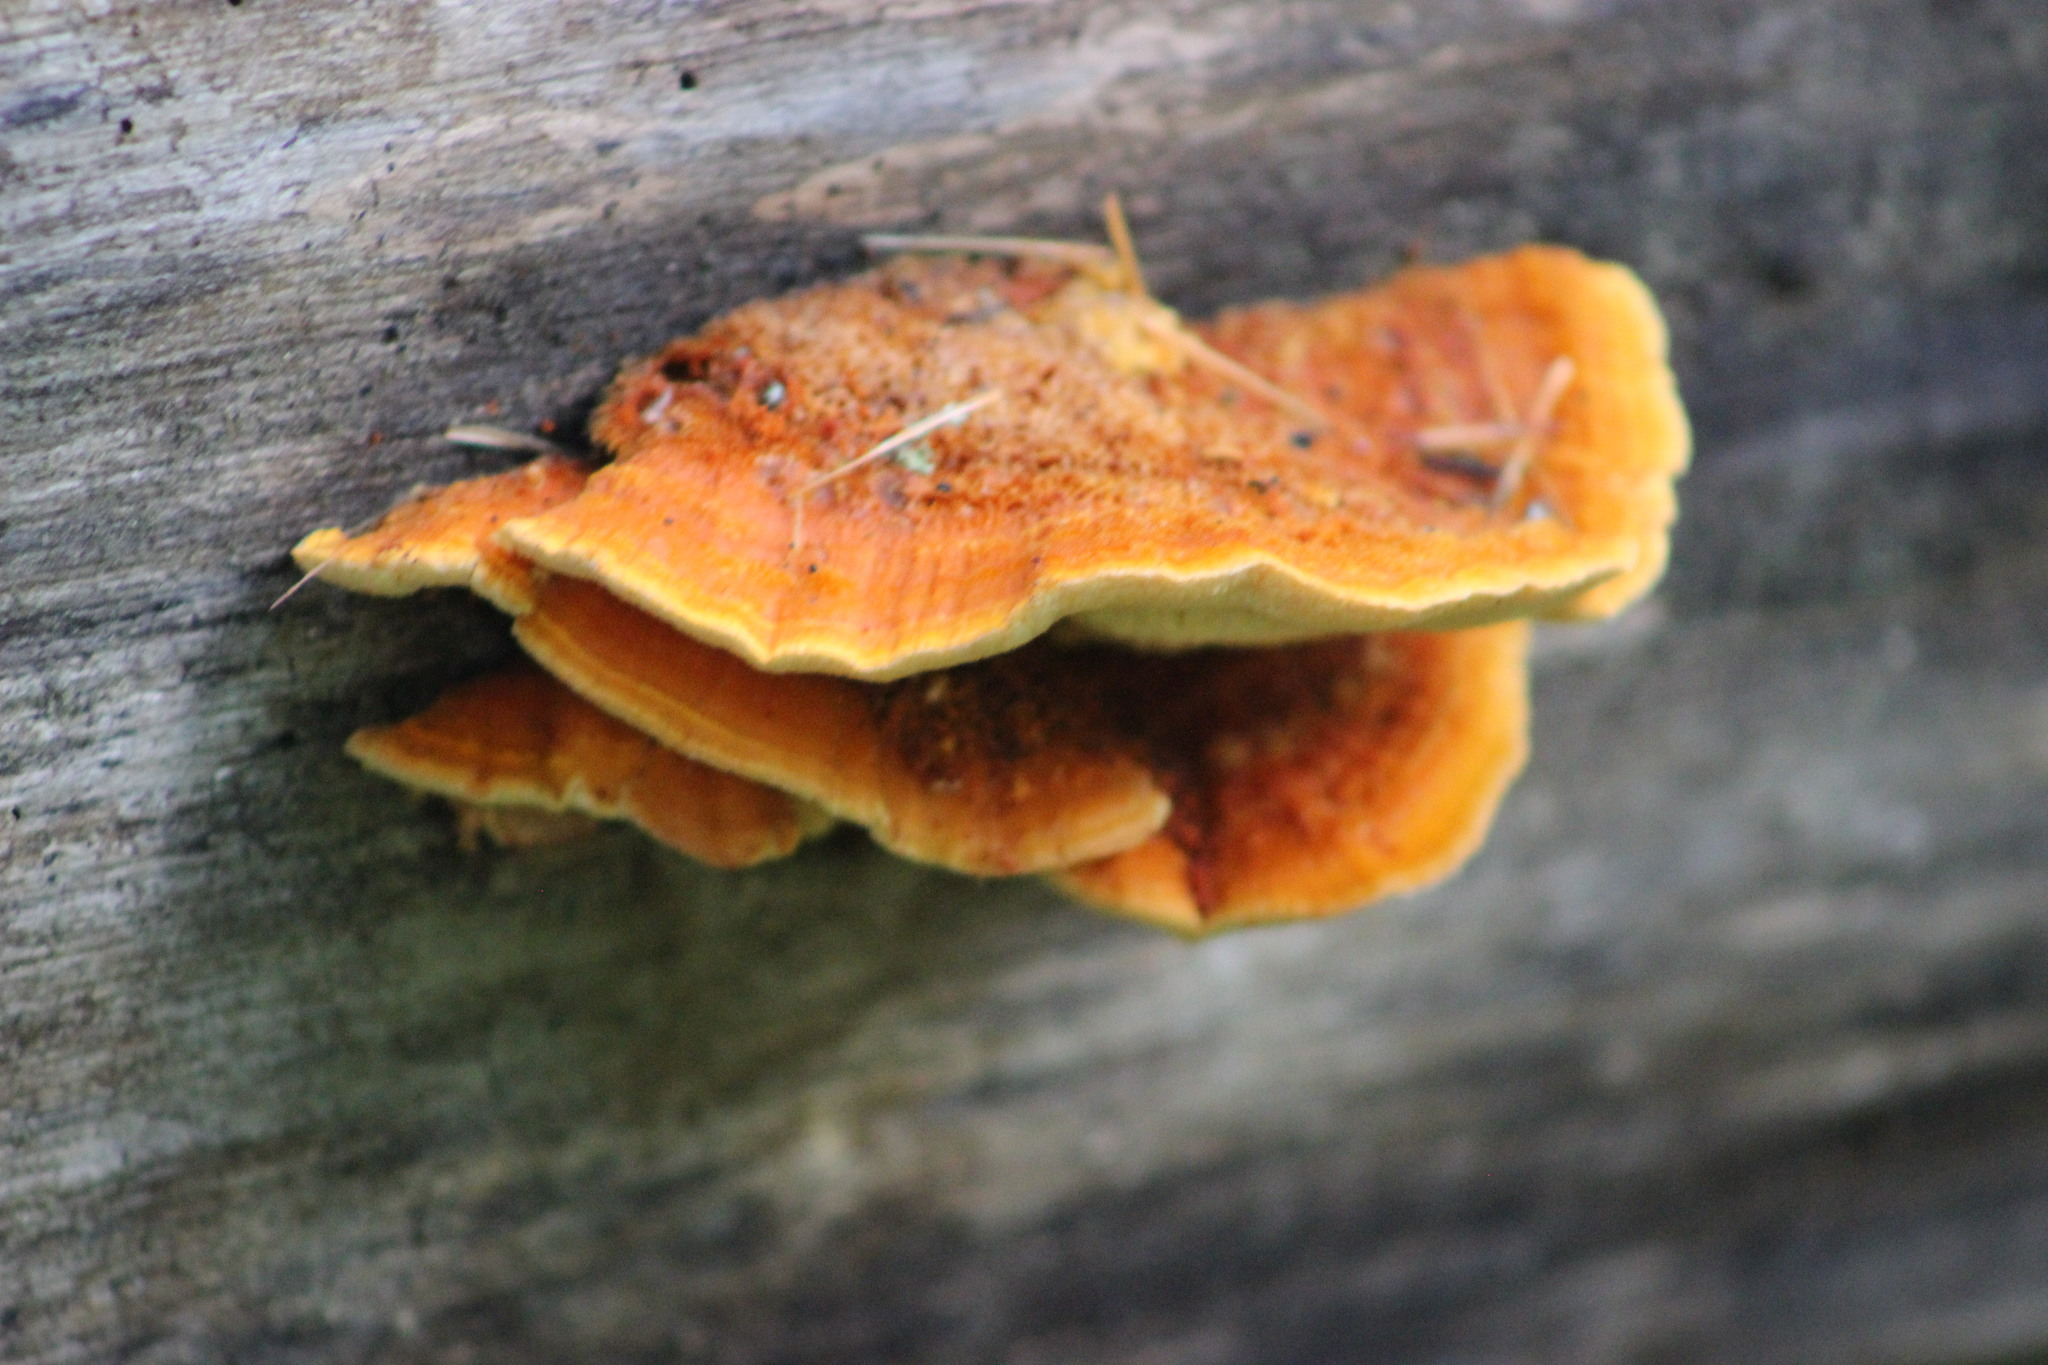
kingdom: Fungi
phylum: Basidiomycota
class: Agaricomycetes
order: Polyporales
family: Pycnoporellaceae
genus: Pycnoporellus
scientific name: Pycnoporellus fulgens
